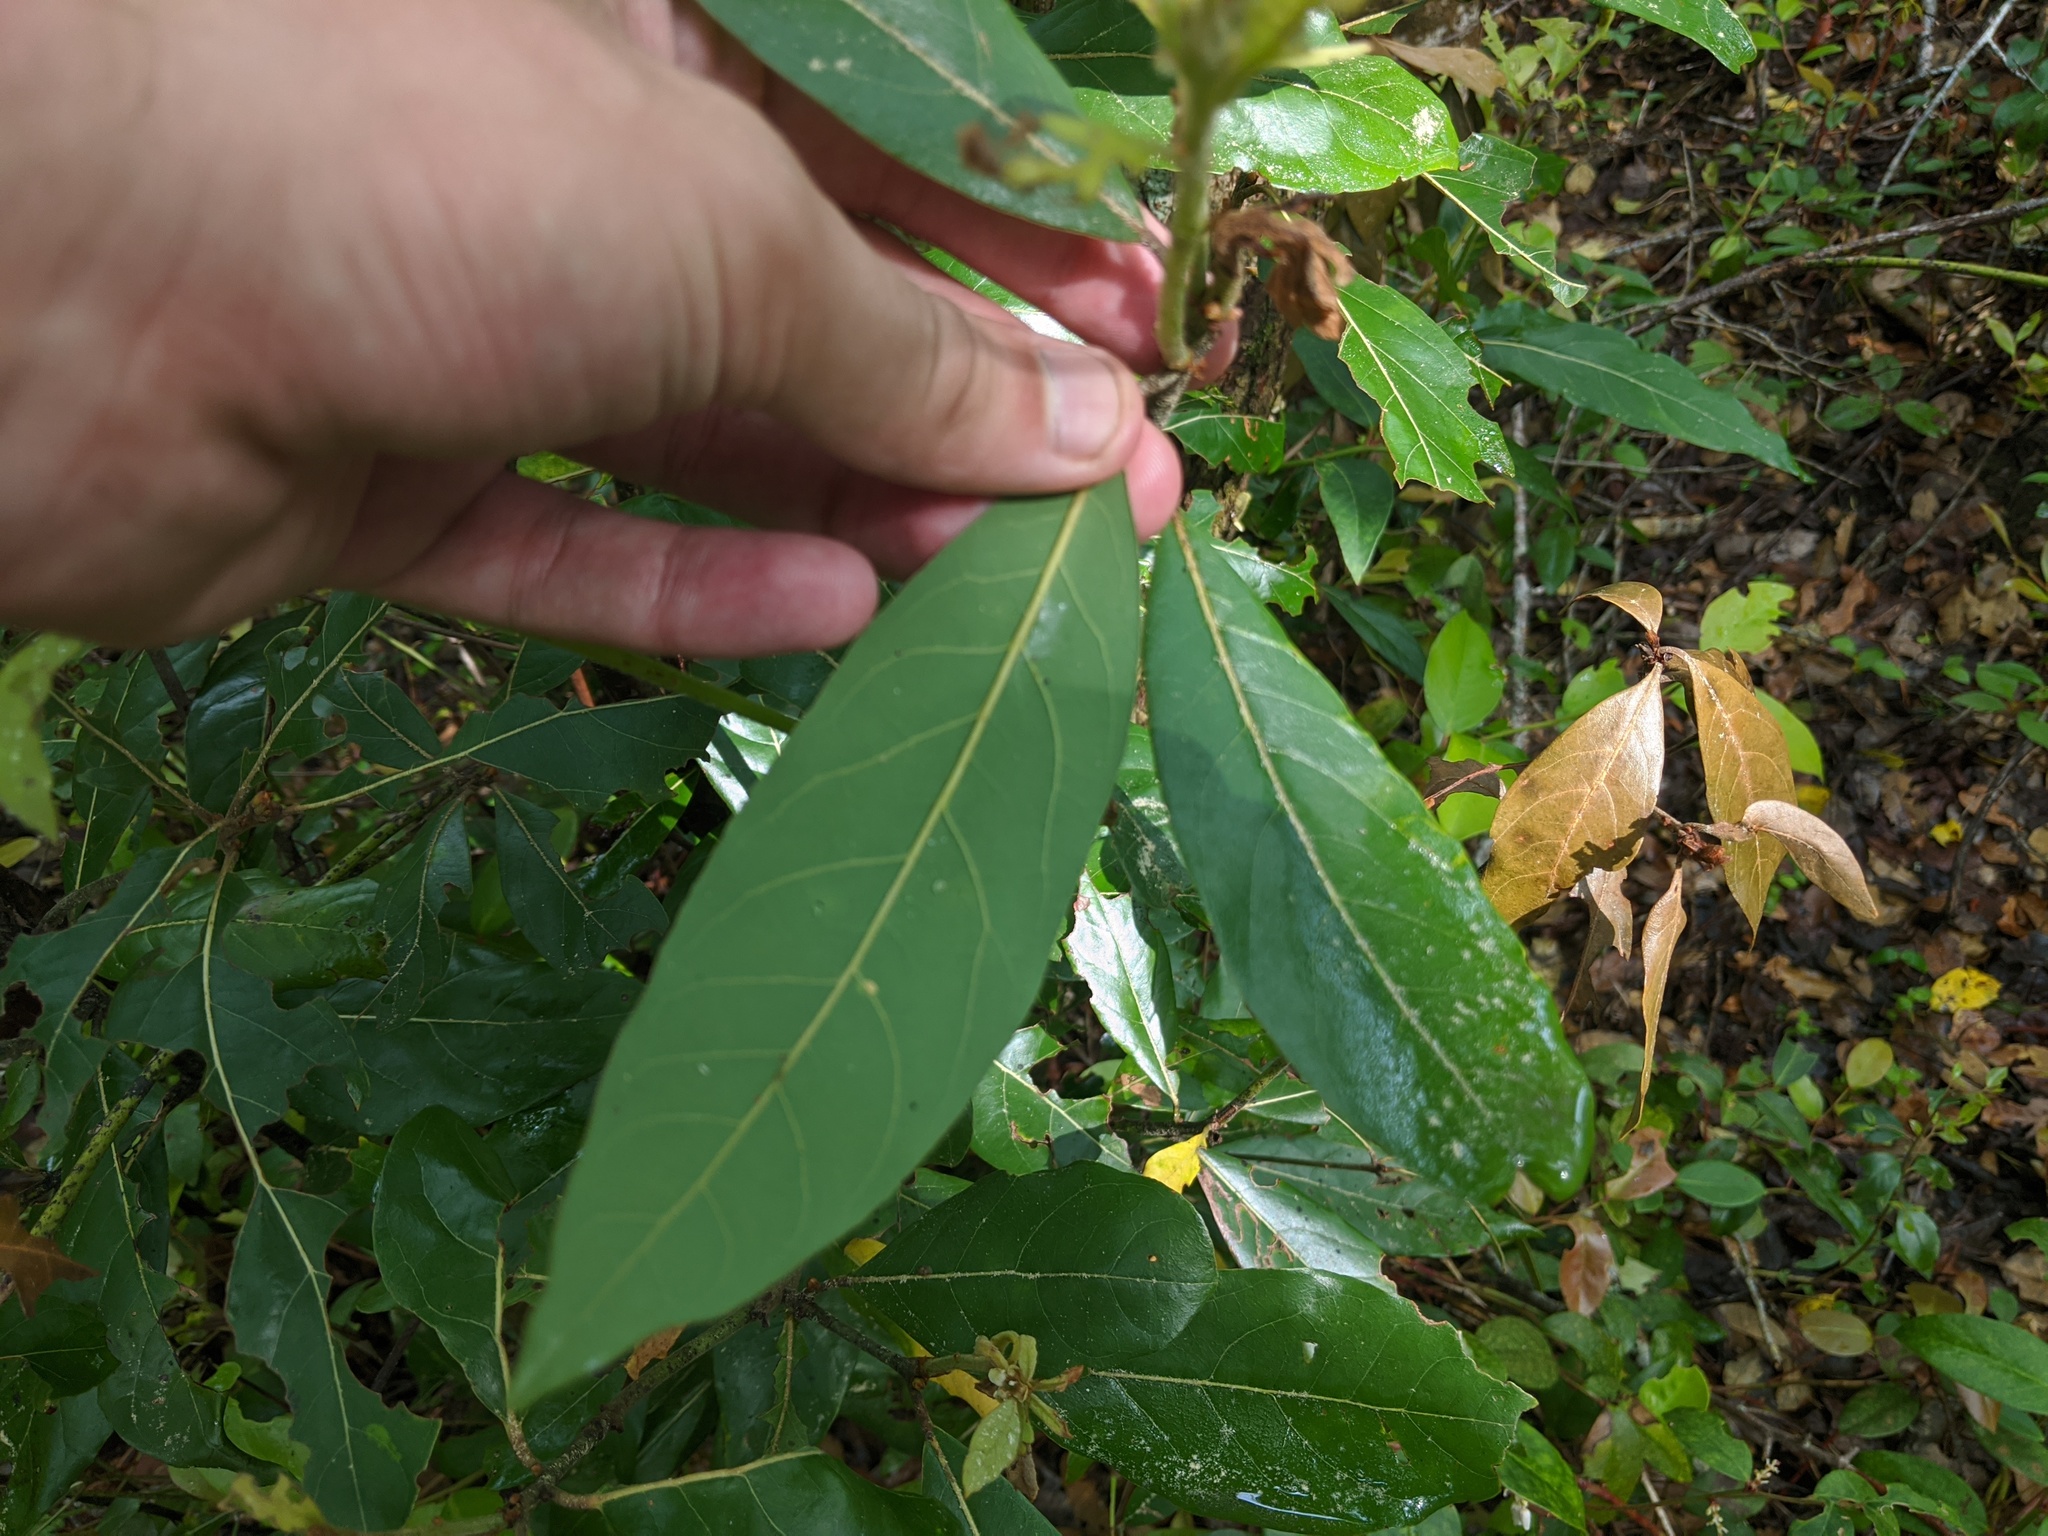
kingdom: Plantae
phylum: Tracheophyta
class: Magnoliopsida
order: Laurales
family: Lauraceae
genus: Persea
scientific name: Persea palustris
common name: Swampbay
